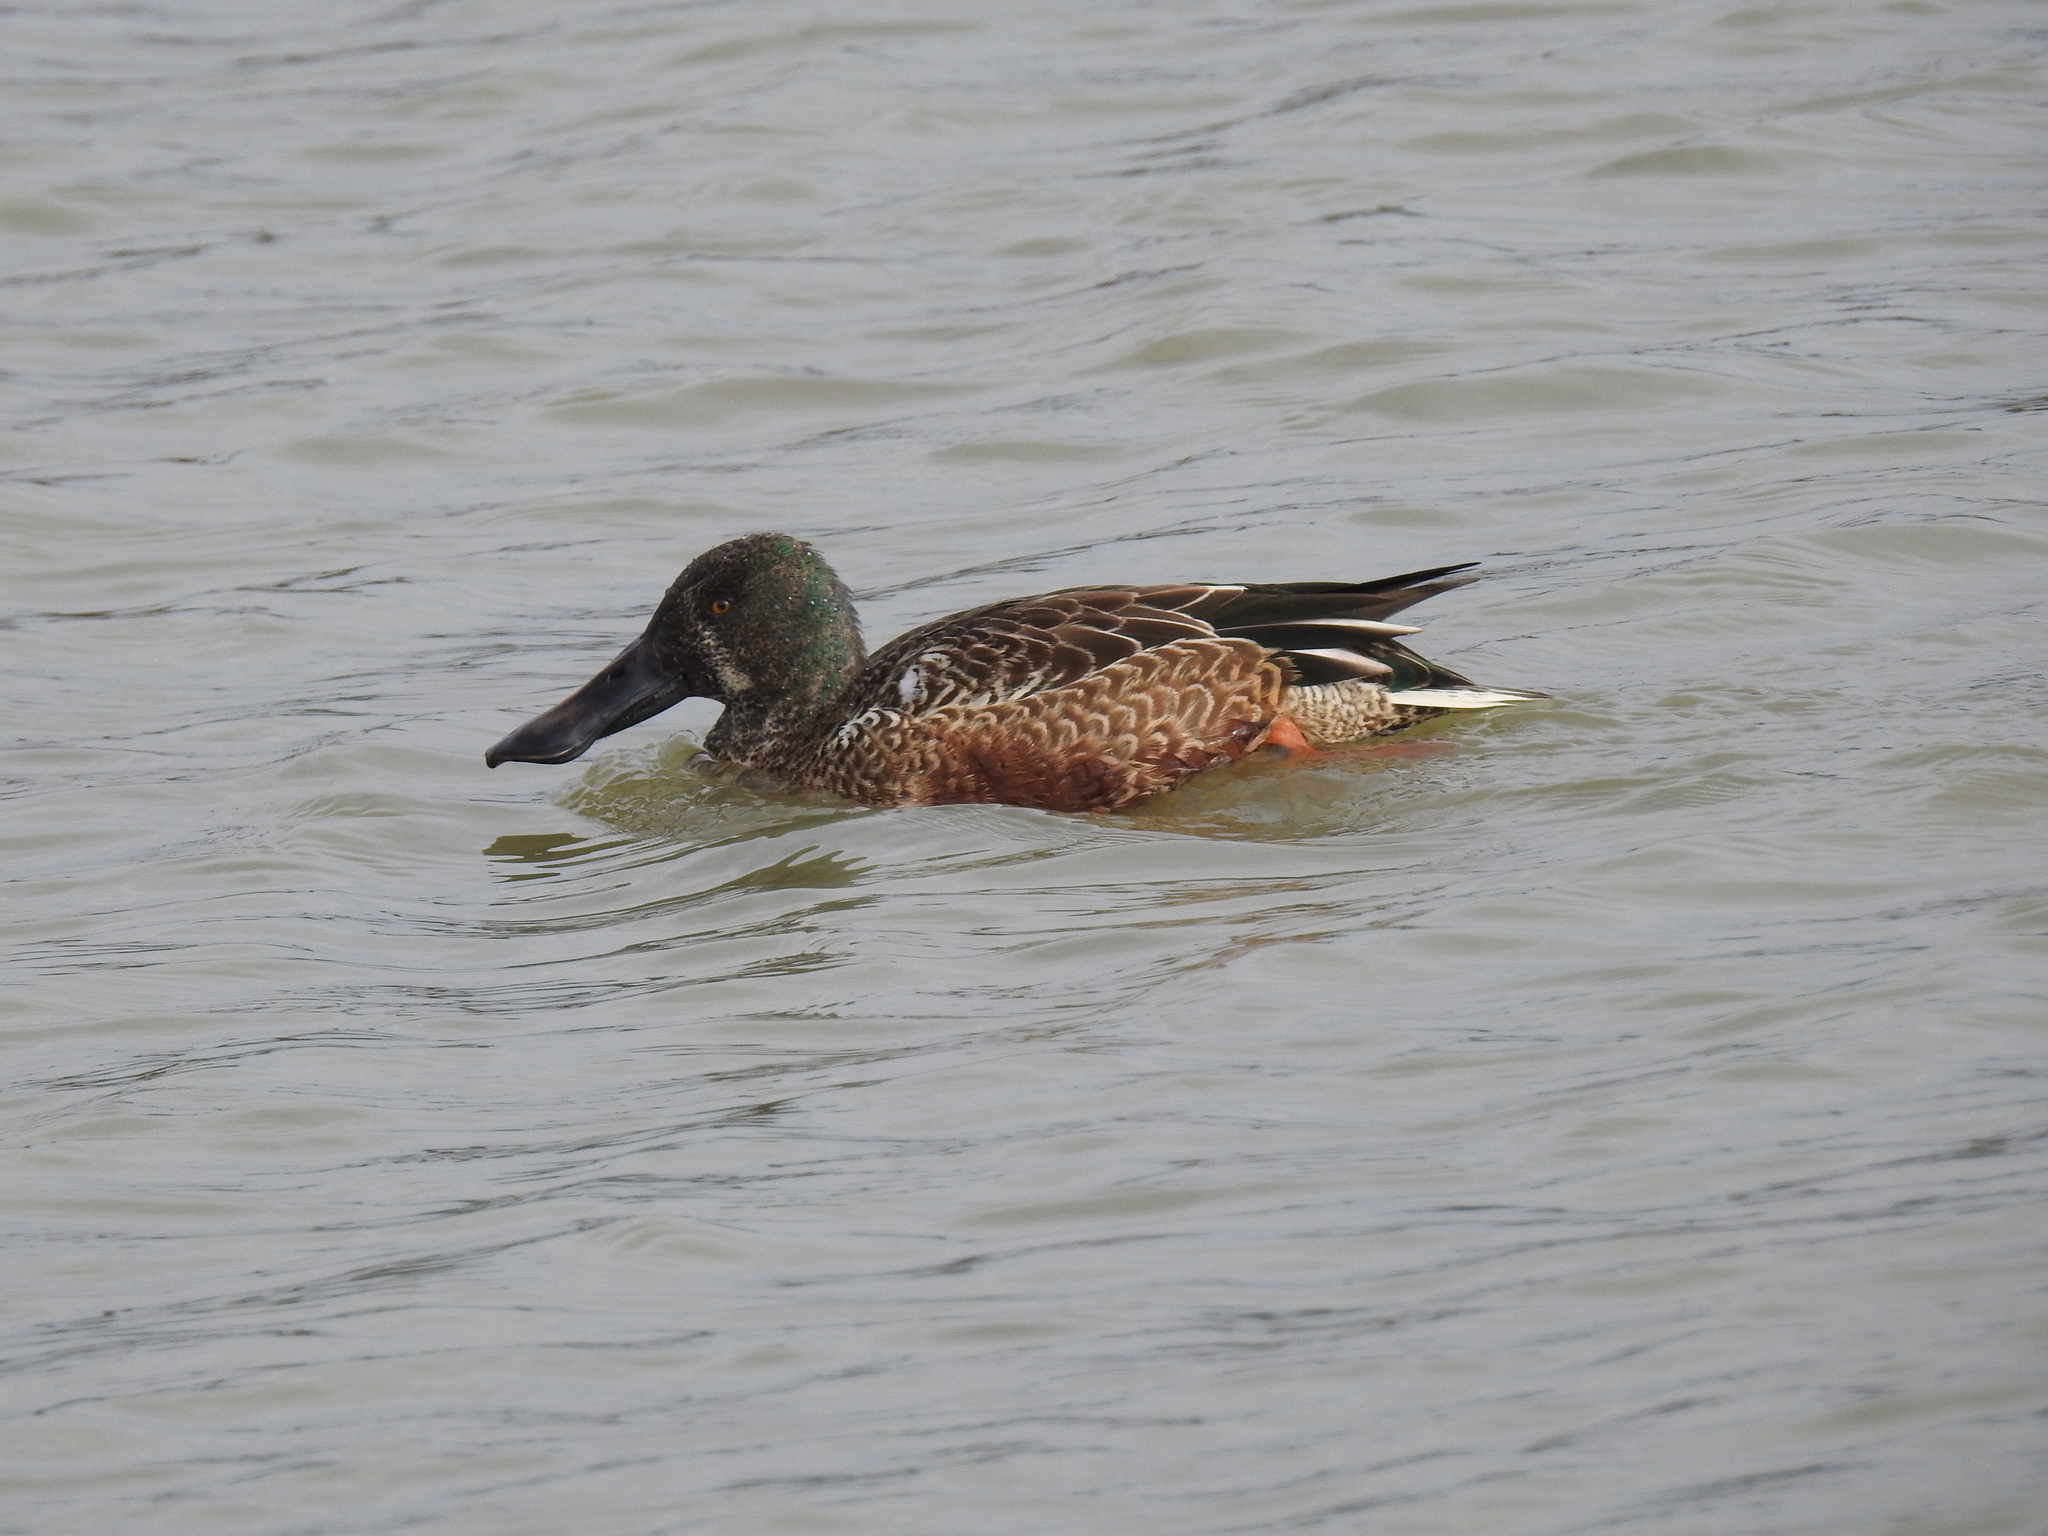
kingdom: Animalia
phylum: Chordata
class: Aves
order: Anseriformes
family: Anatidae
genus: Spatula
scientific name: Spatula clypeata
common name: Northern shoveler
